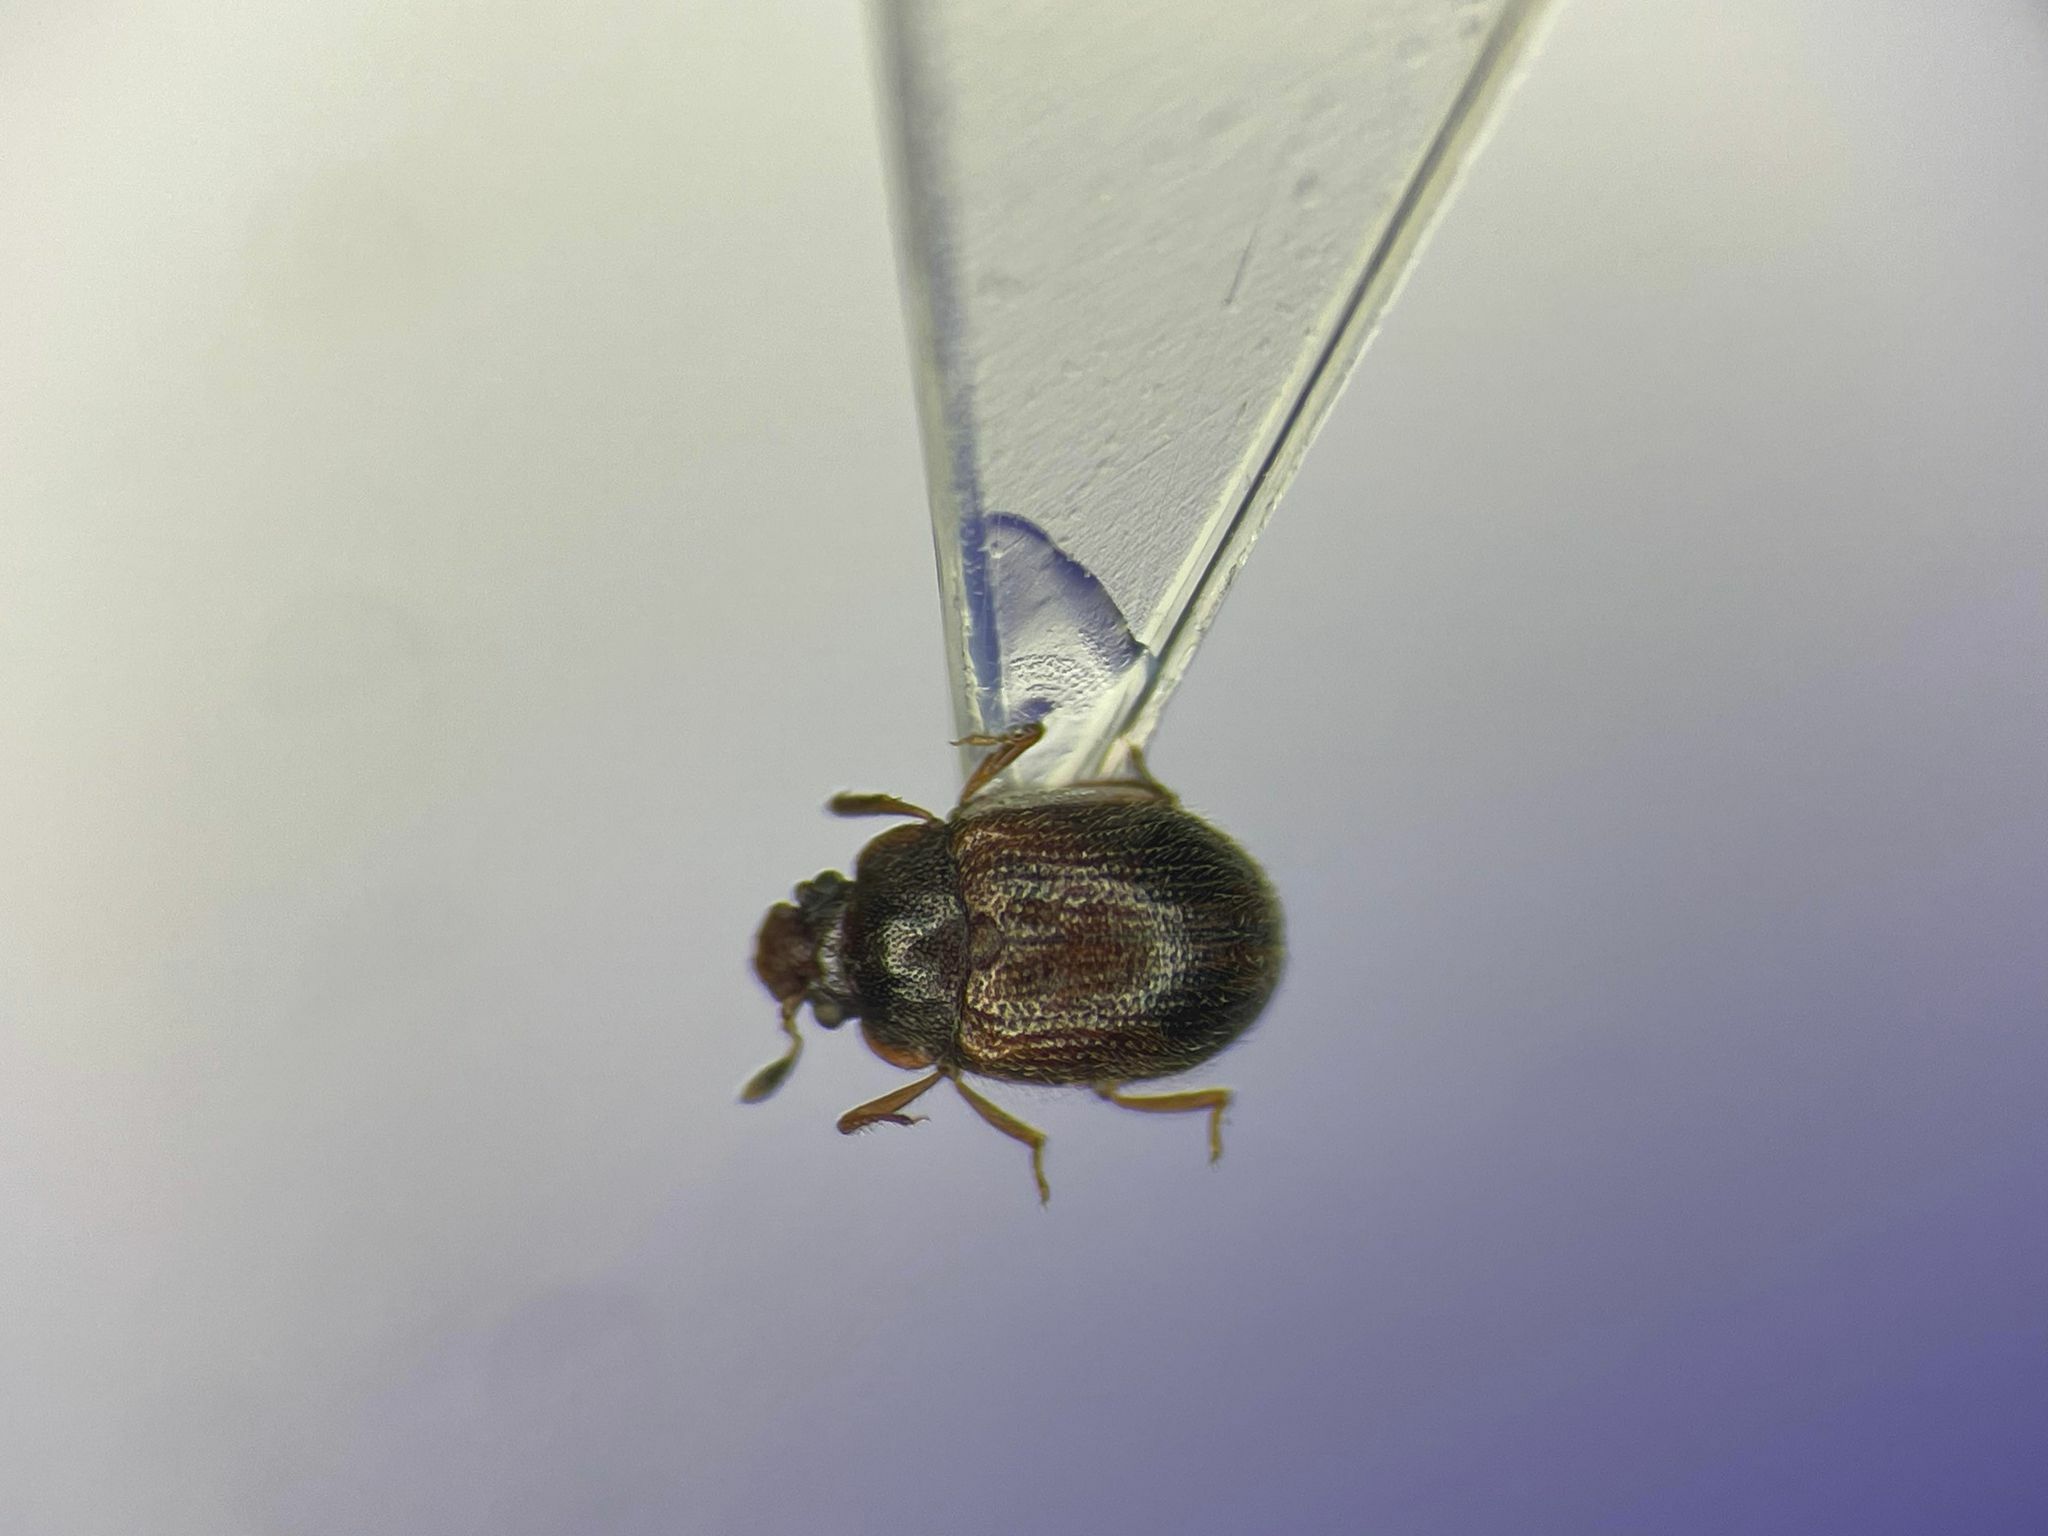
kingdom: Animalia
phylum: Arthropoda
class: Insecta
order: Coleoptera
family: Sphindidae
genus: Eurysphindus
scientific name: Eurysphindus comatulus
